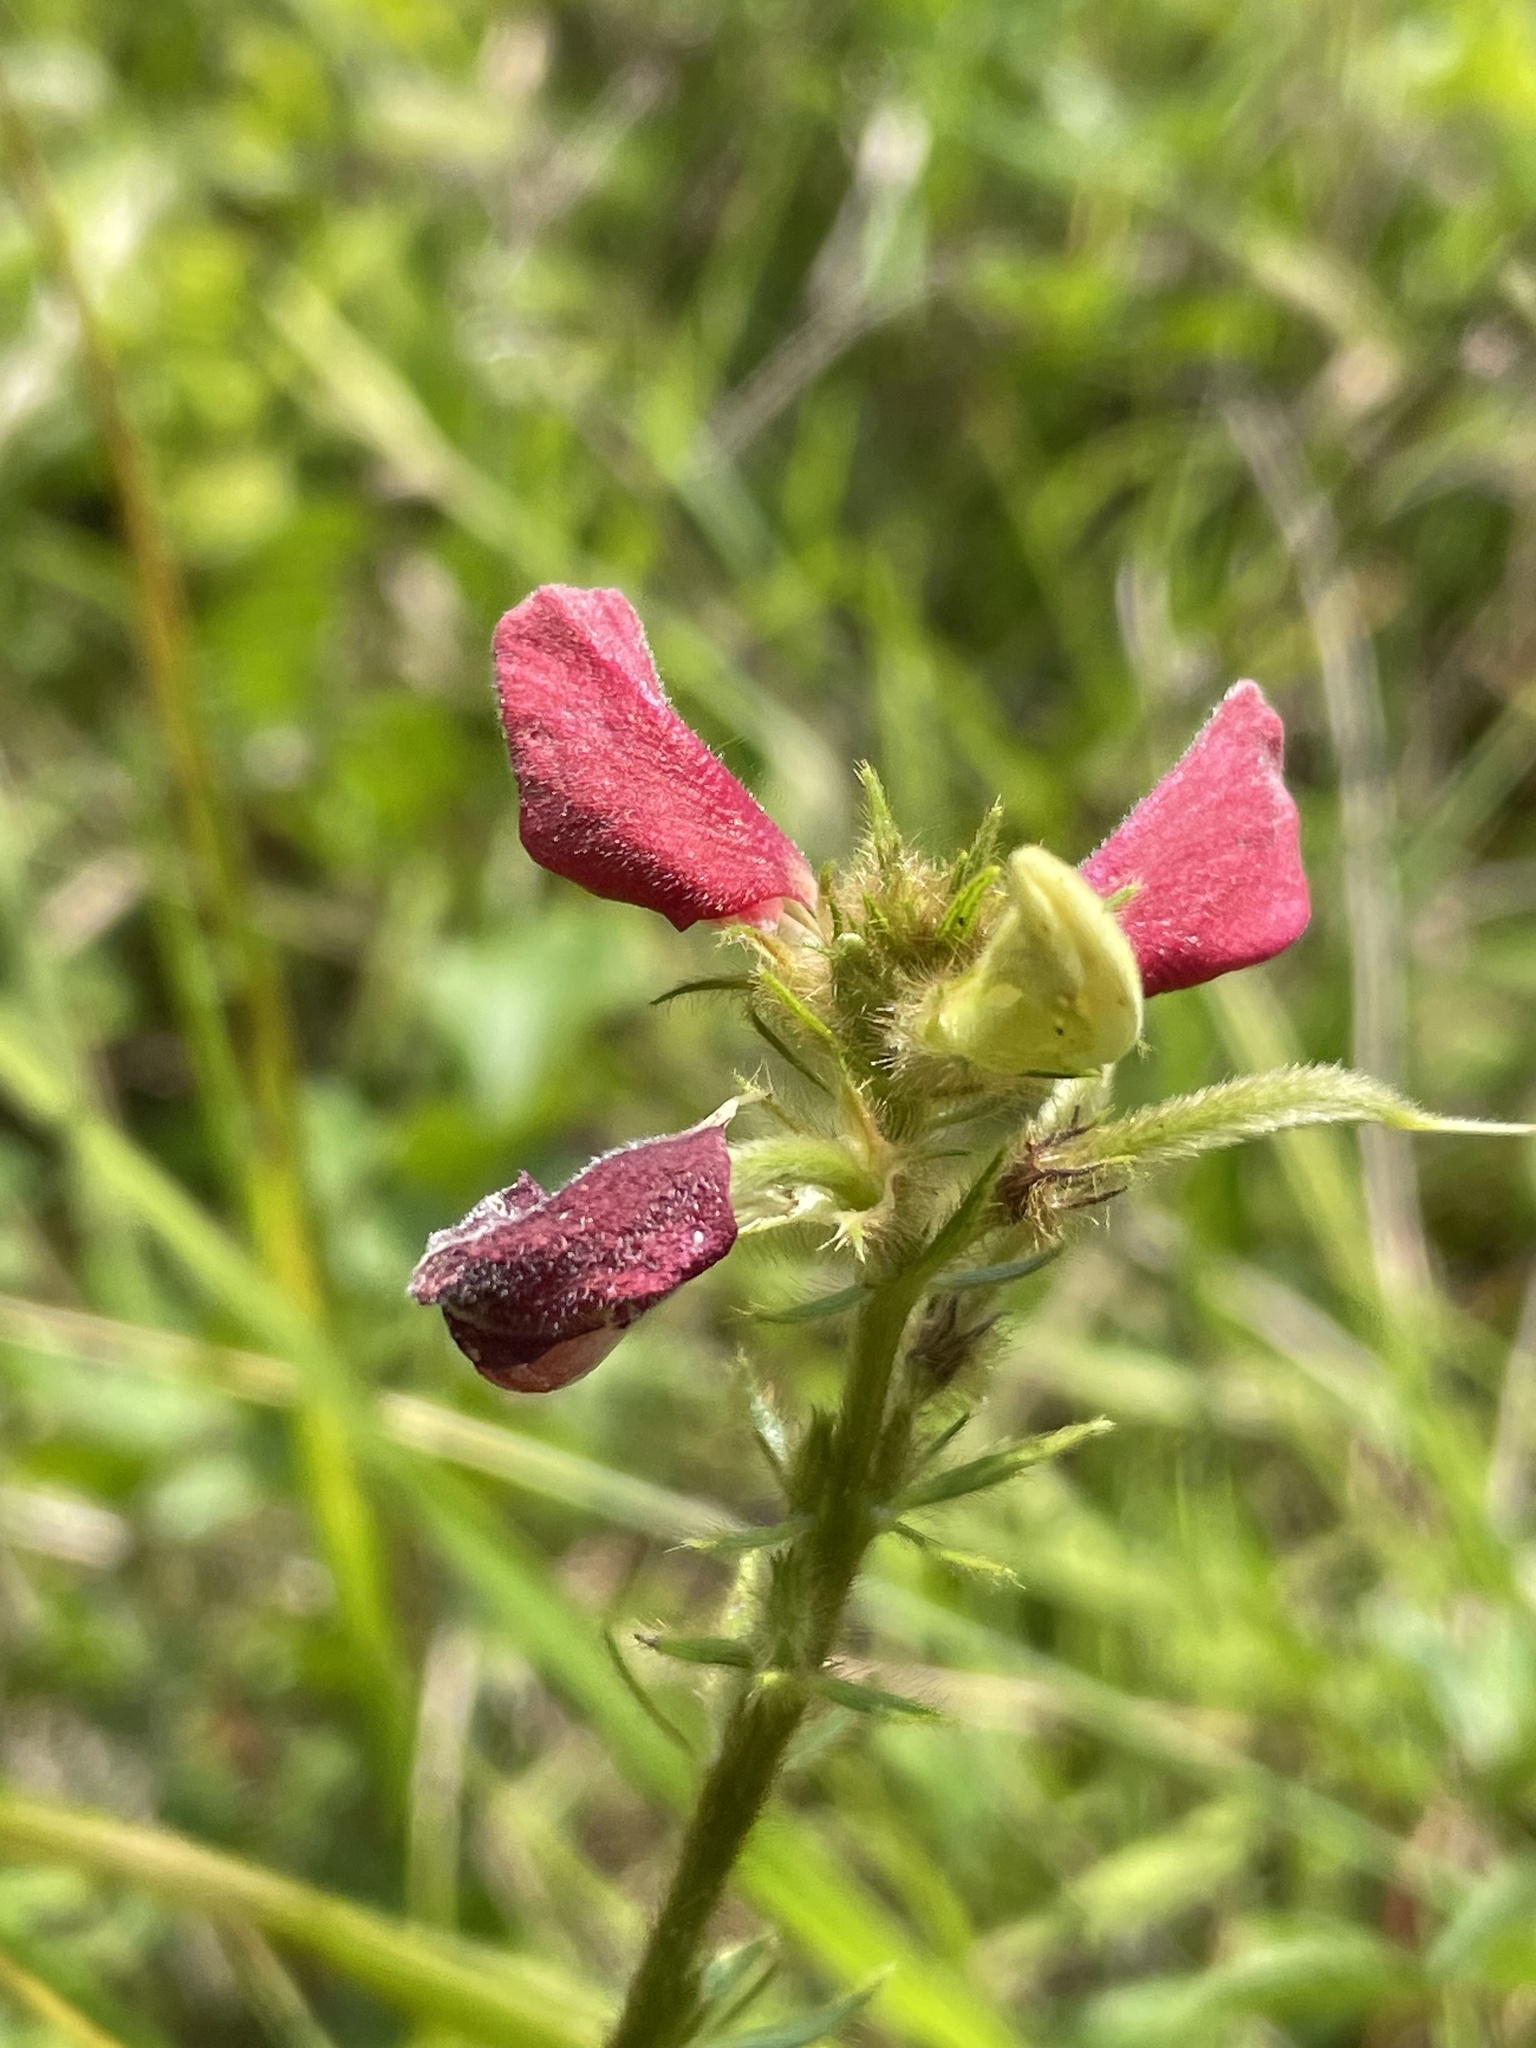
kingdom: Plantae
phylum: Tracheophyta
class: Magnoliopsida
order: Fabales
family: Fabaceae
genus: Tephrosia
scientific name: Tephrosia spicata
